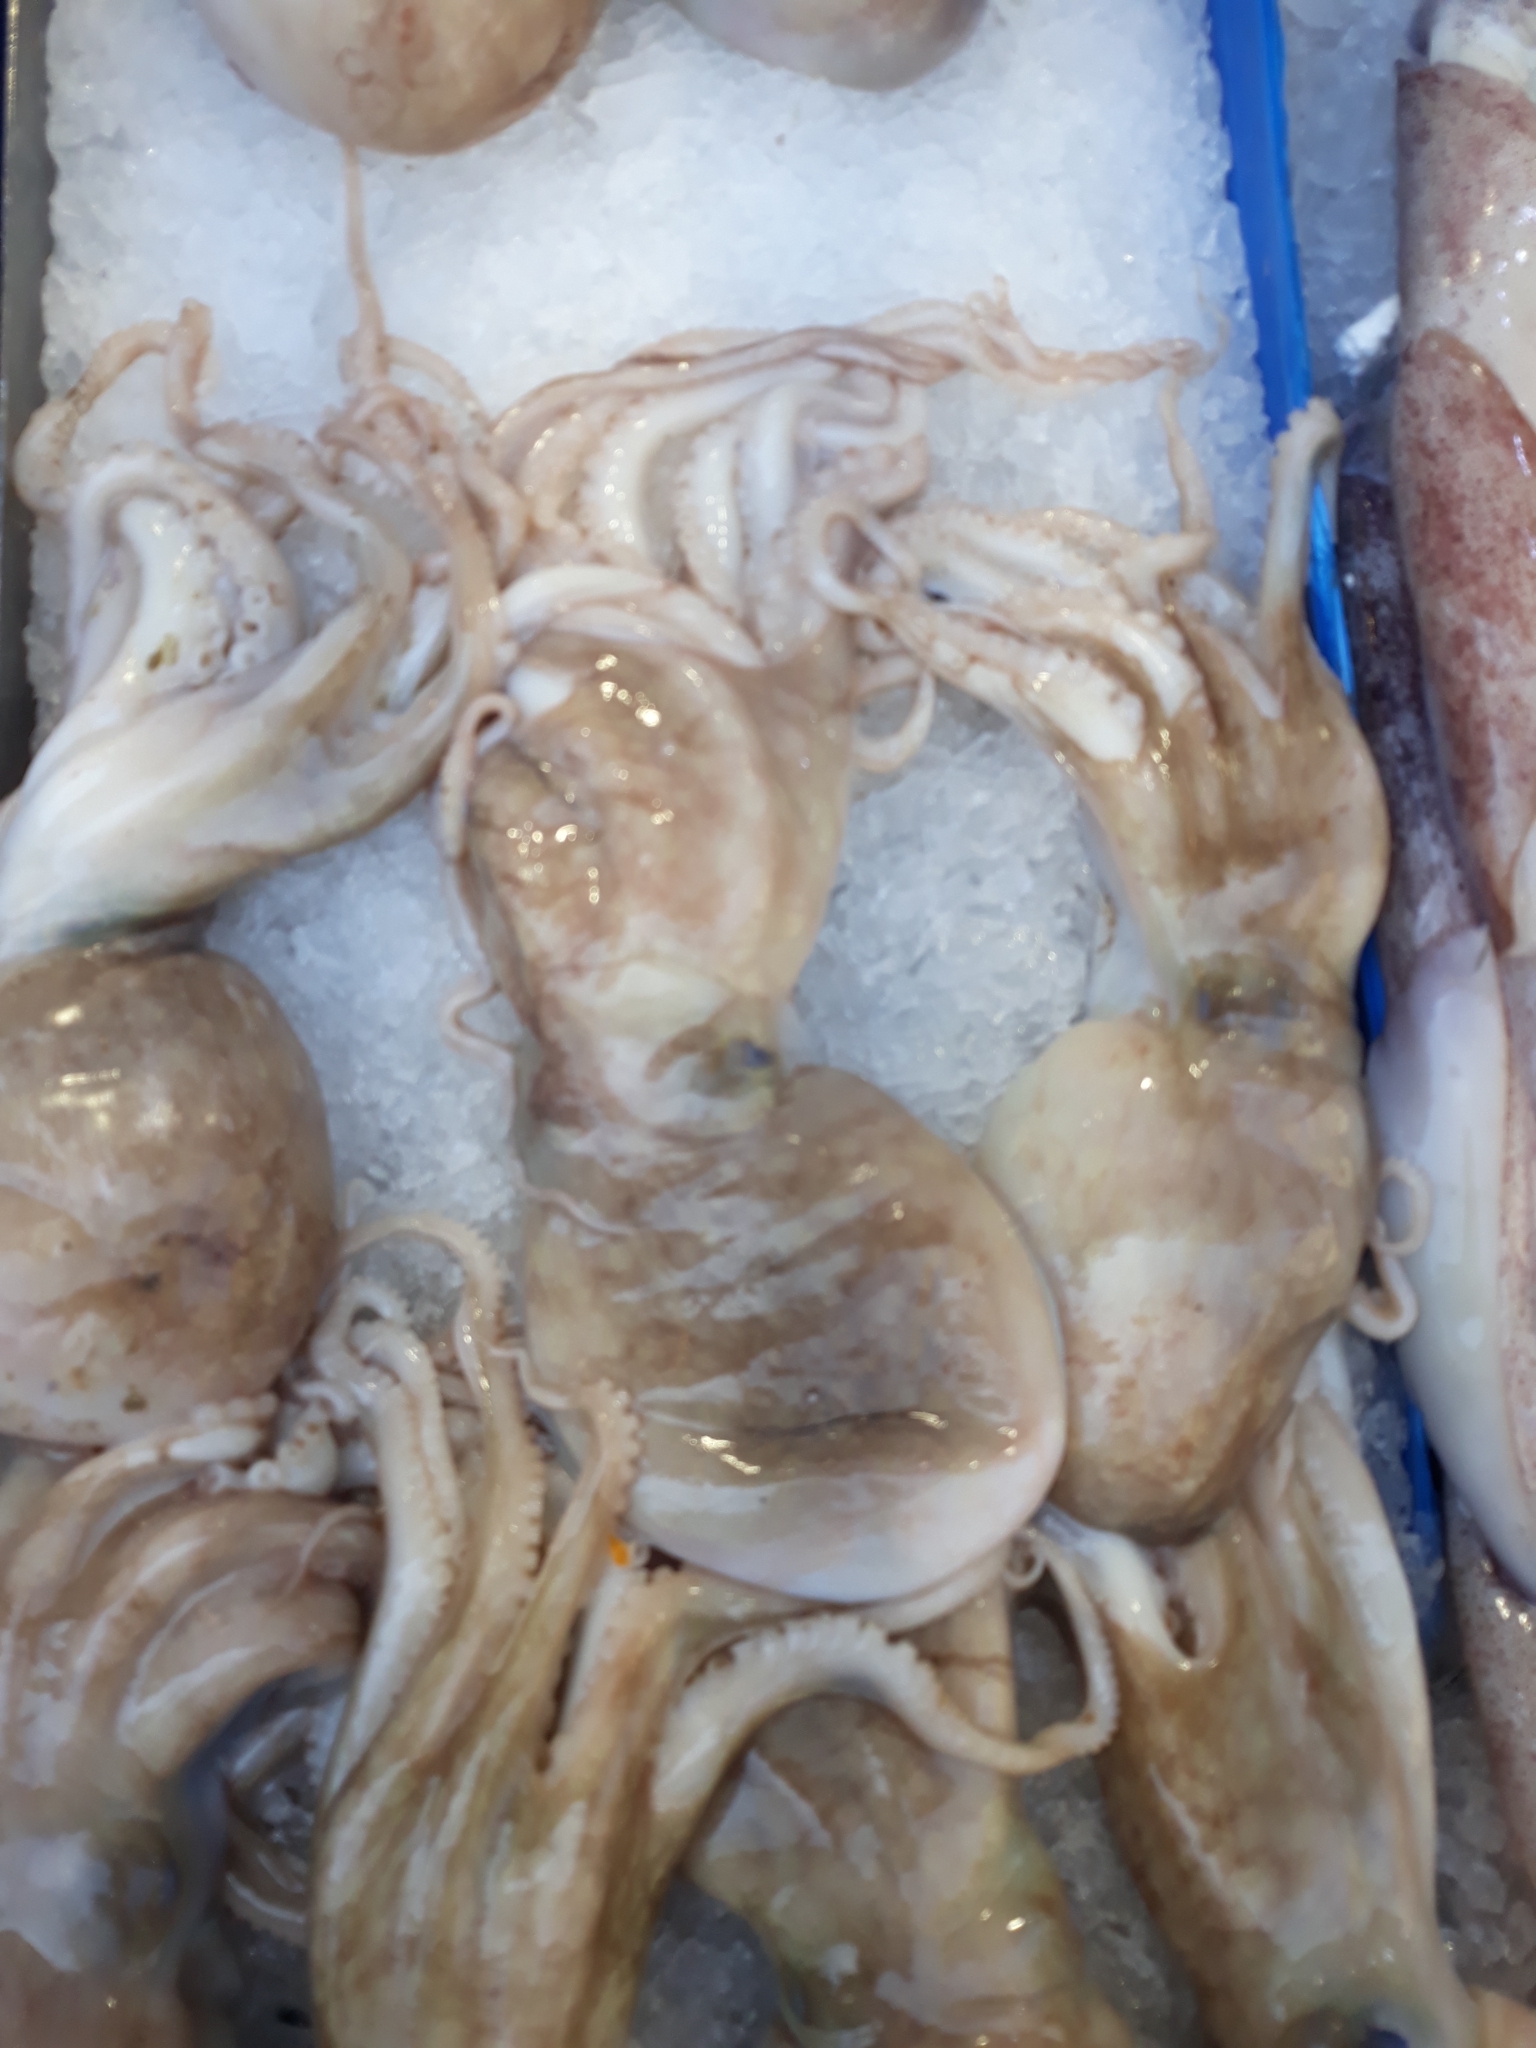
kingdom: Animalia
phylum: Mollusca
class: Cephalopoda
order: Octopoda
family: Eledonidae
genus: Eledone
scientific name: Eledone cirrhosa
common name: Curled octopus
